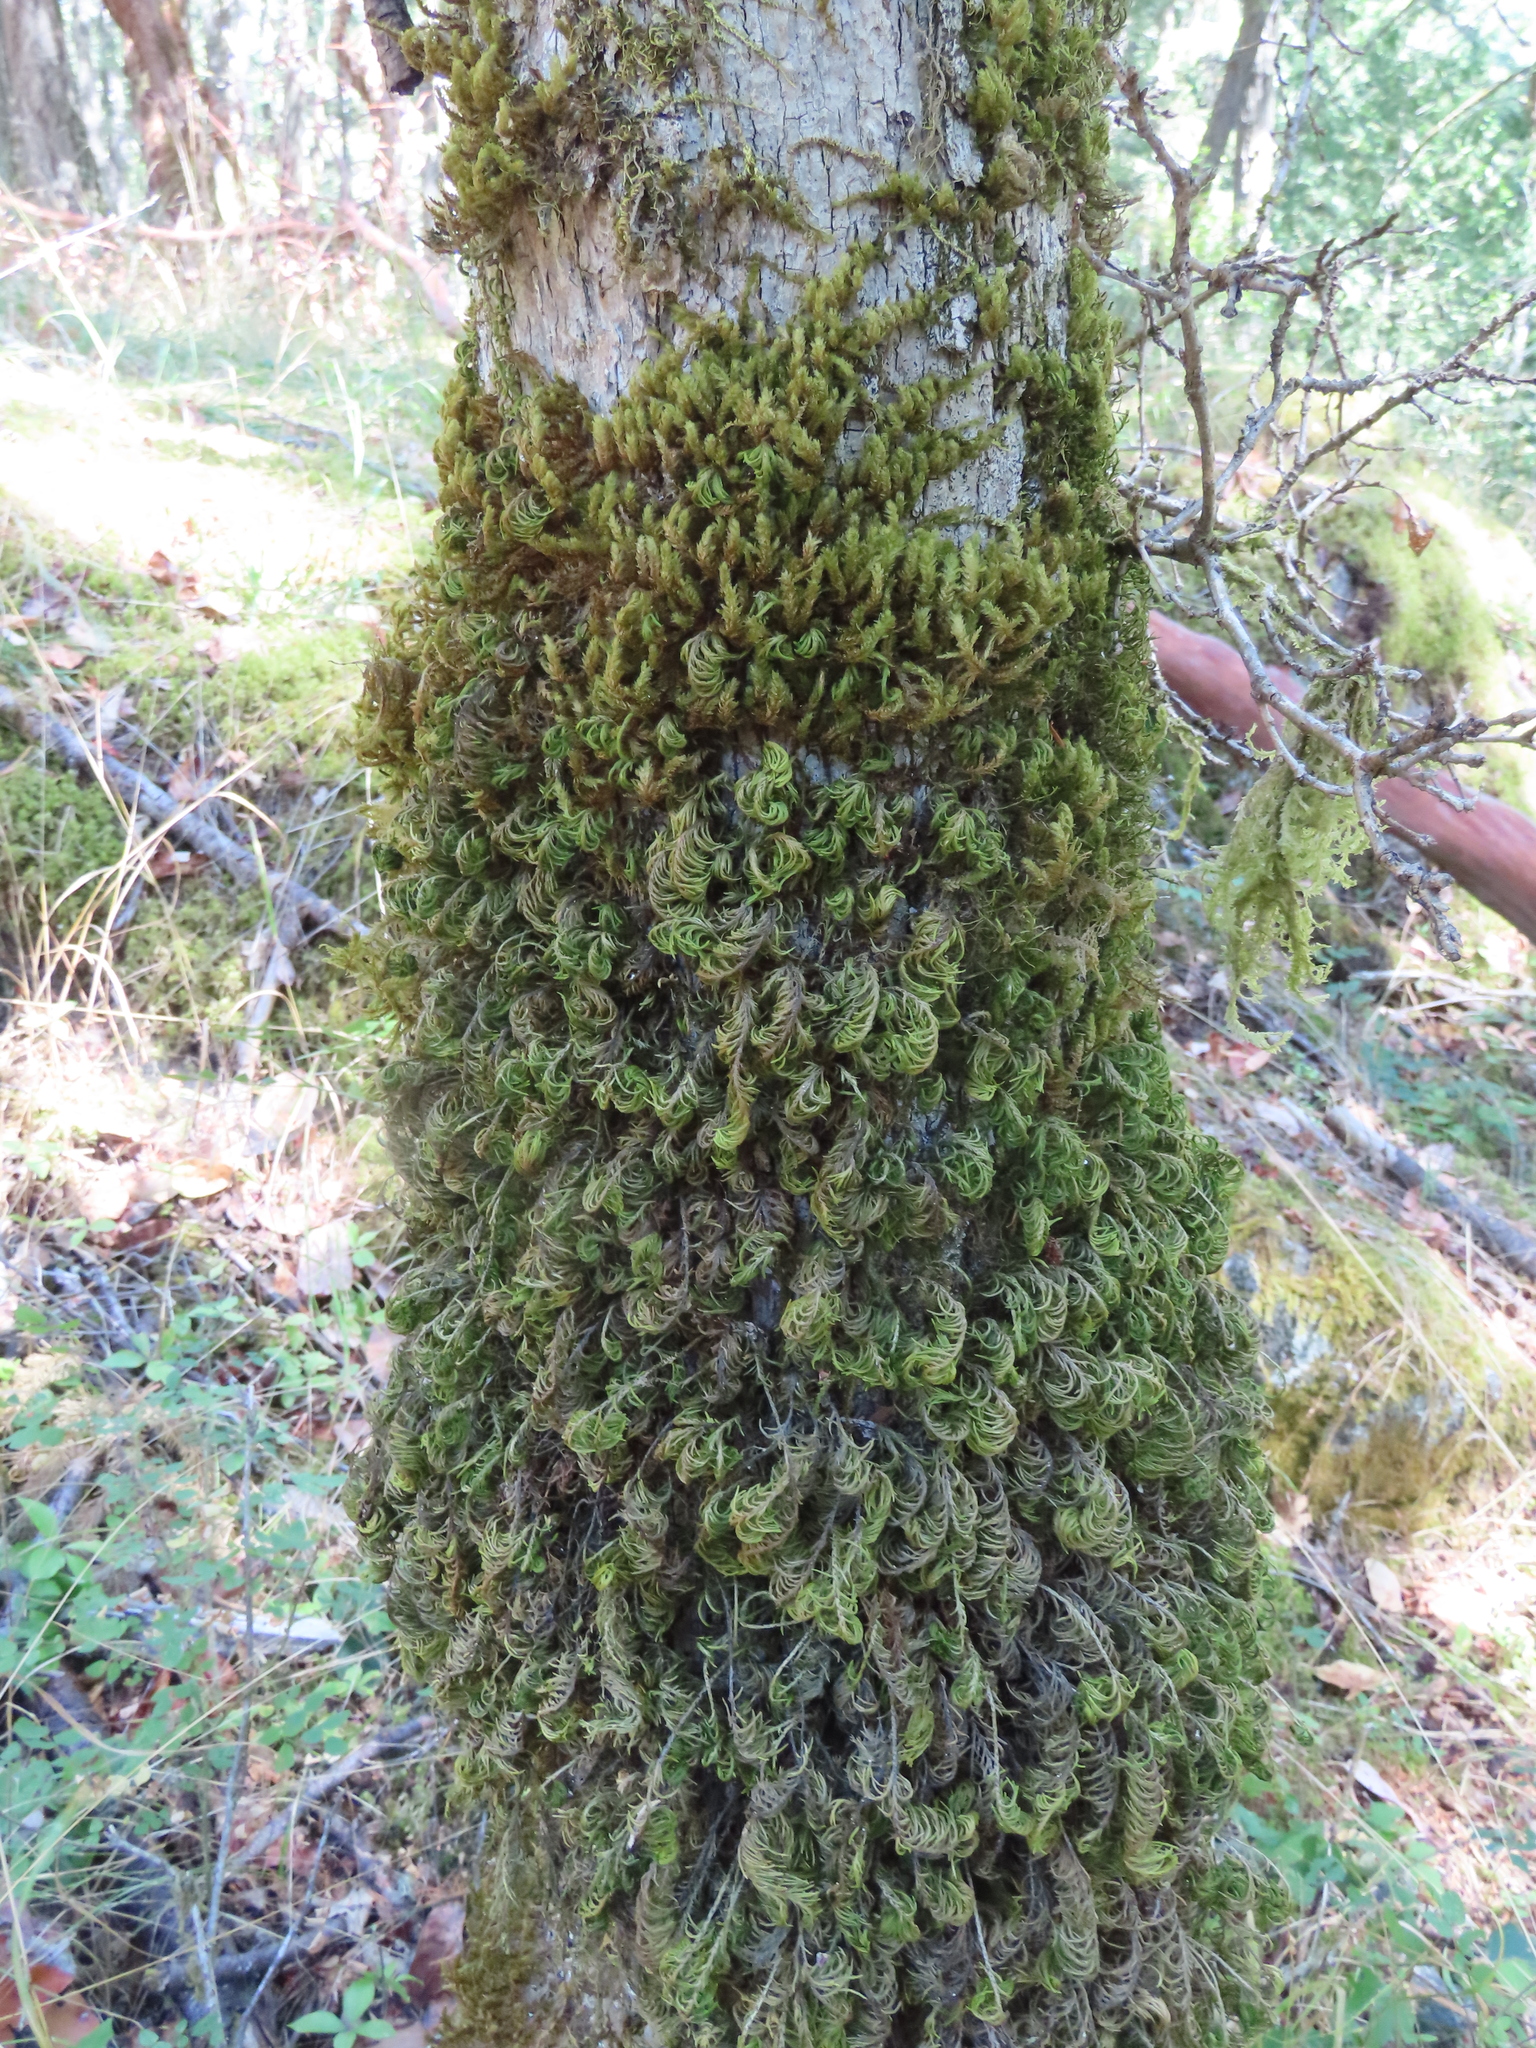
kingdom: Plantae
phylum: Bryophyta
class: Bryopsida
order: Hypnales
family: Cryphaeaceae
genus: Dendroalsia
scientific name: Dendroalsia abietina
